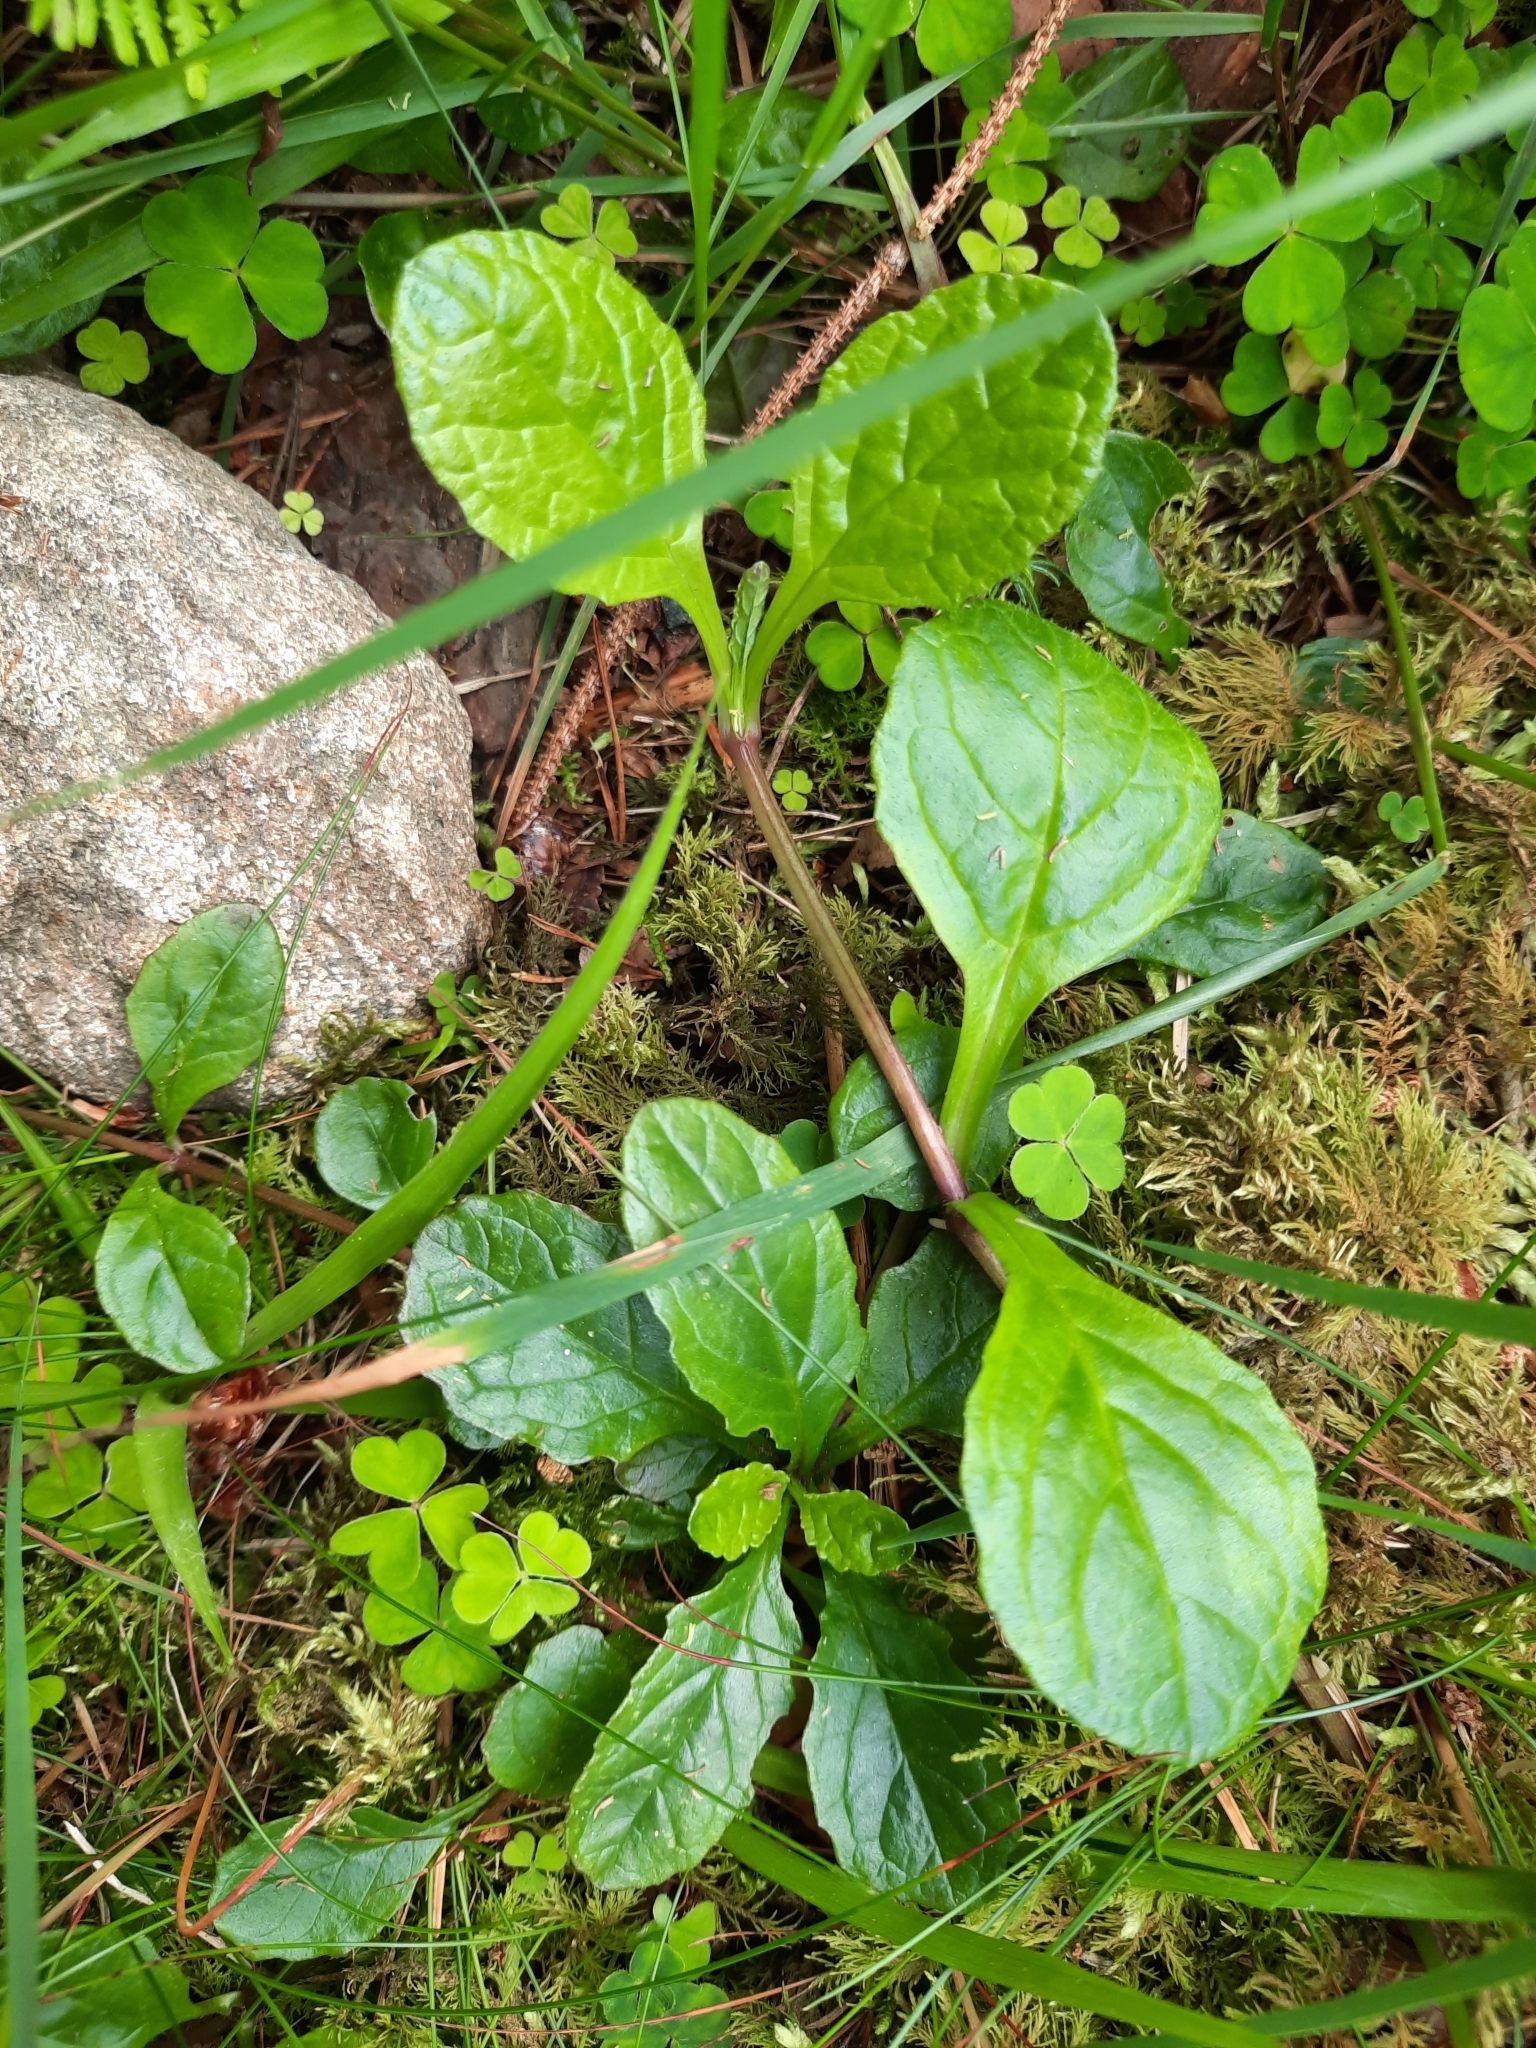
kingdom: Plantae
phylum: Tracheophyta
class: Magnoliopsida
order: Lamiales
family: Lamiaceae
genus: Ajuga
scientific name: Ajuga reptans
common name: Bugle
